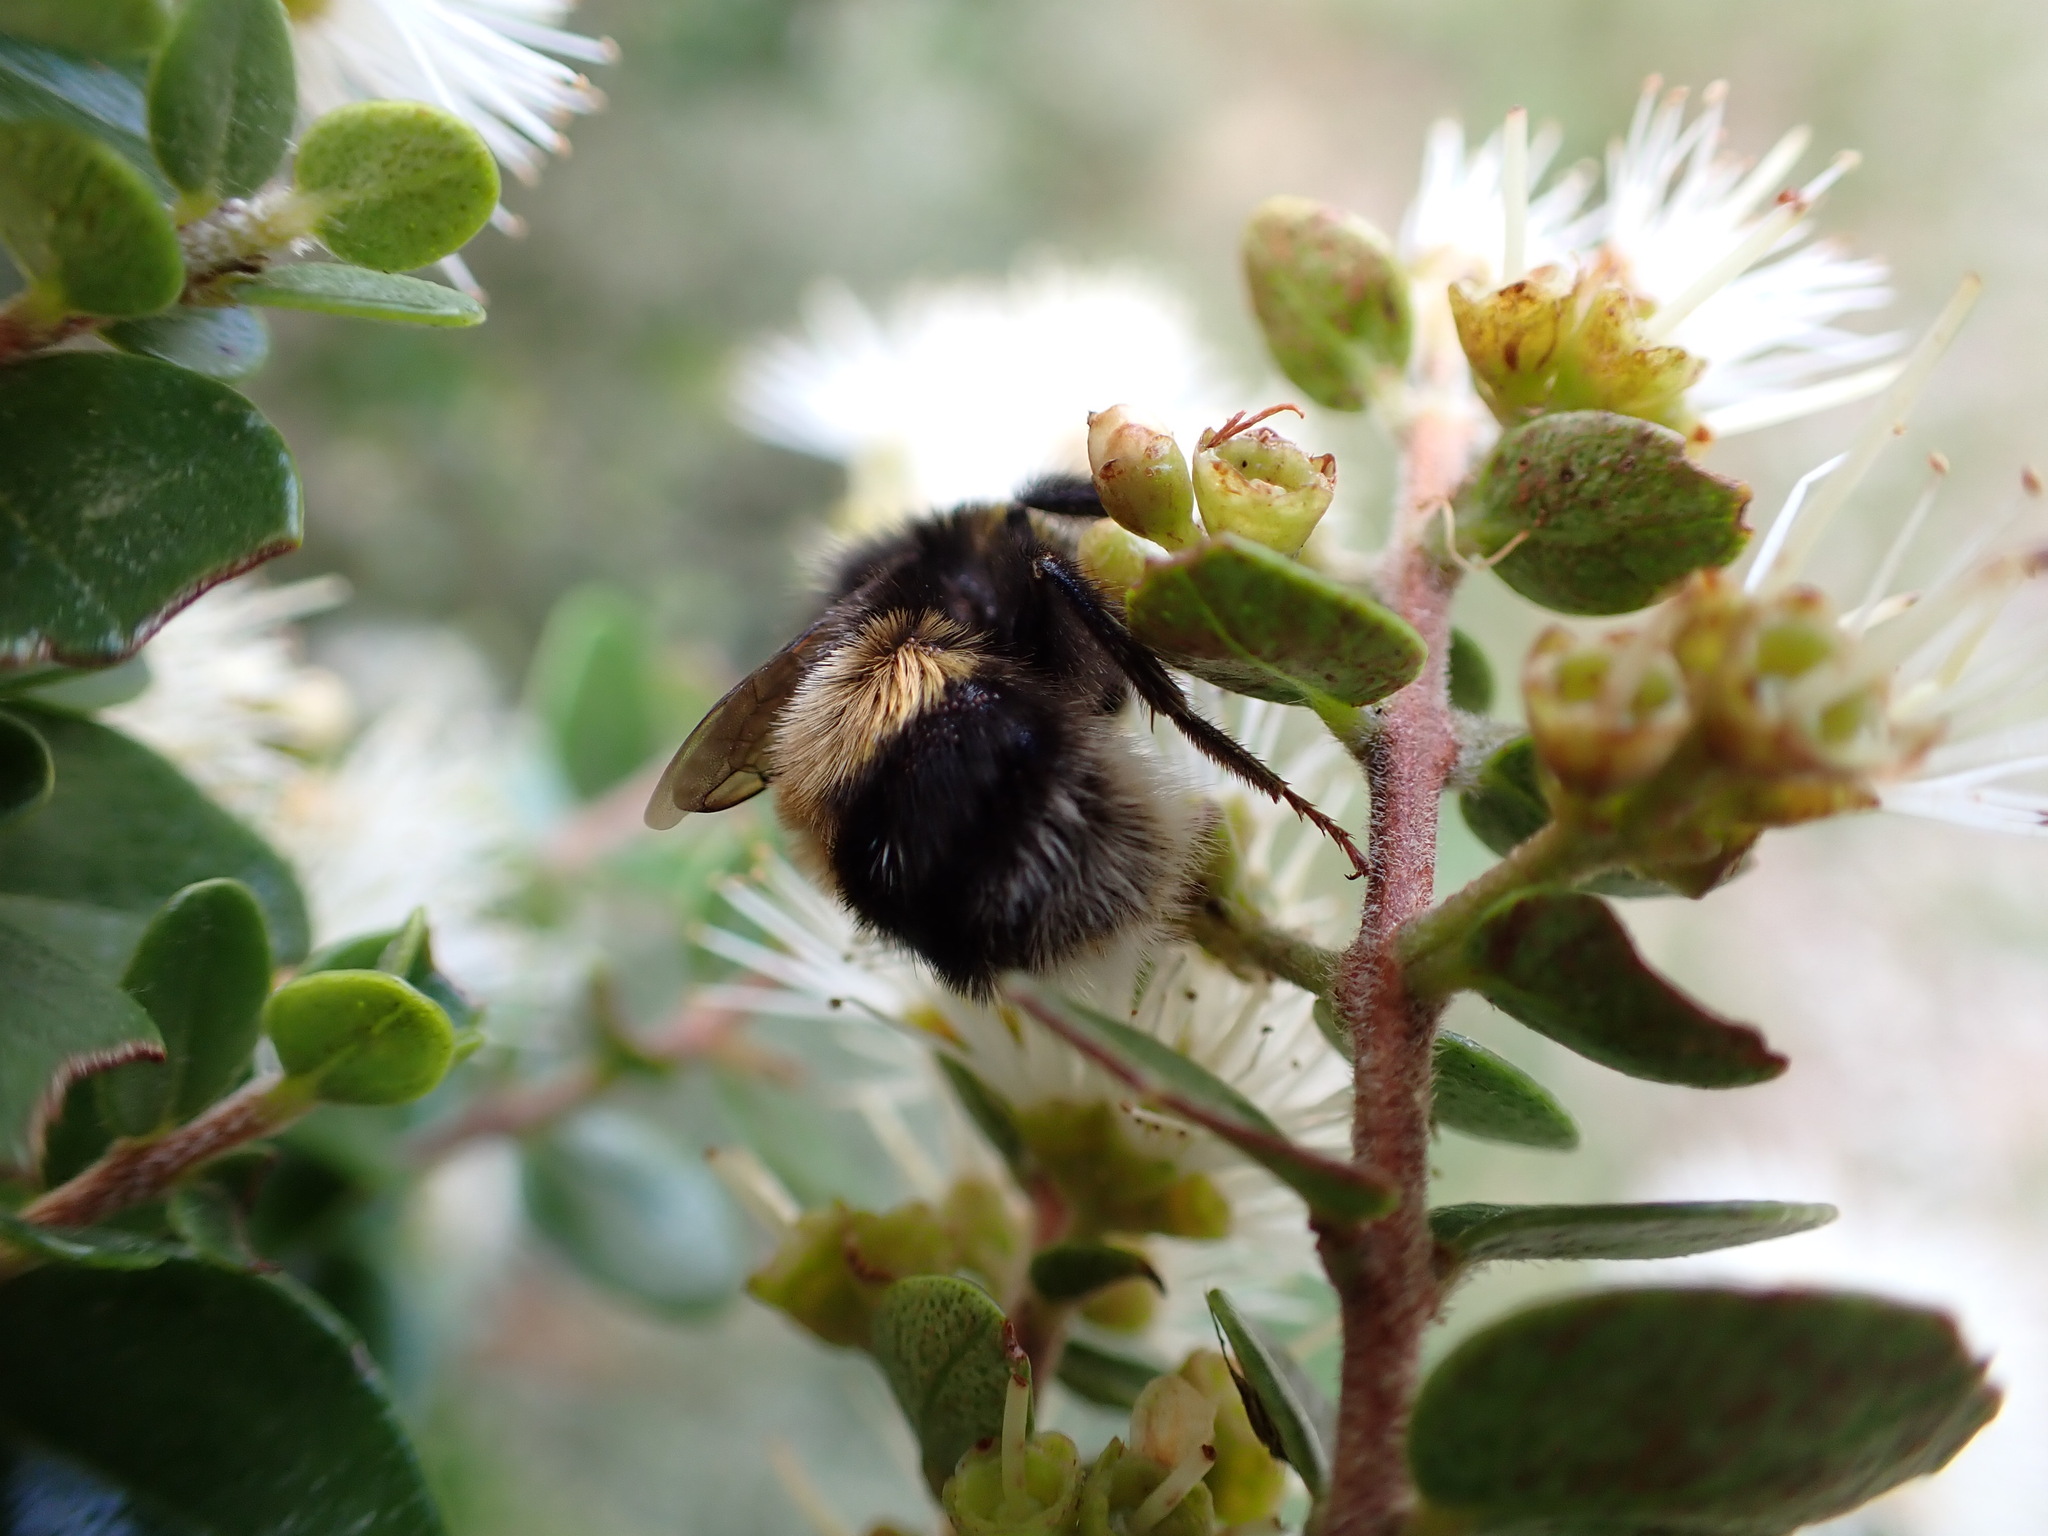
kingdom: Animalia
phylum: Arthropoda
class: Insecta
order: Hymenoptera
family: Apidae
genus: Bombus
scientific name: Bombus terrestris
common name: Buff-tailed bumblebee
